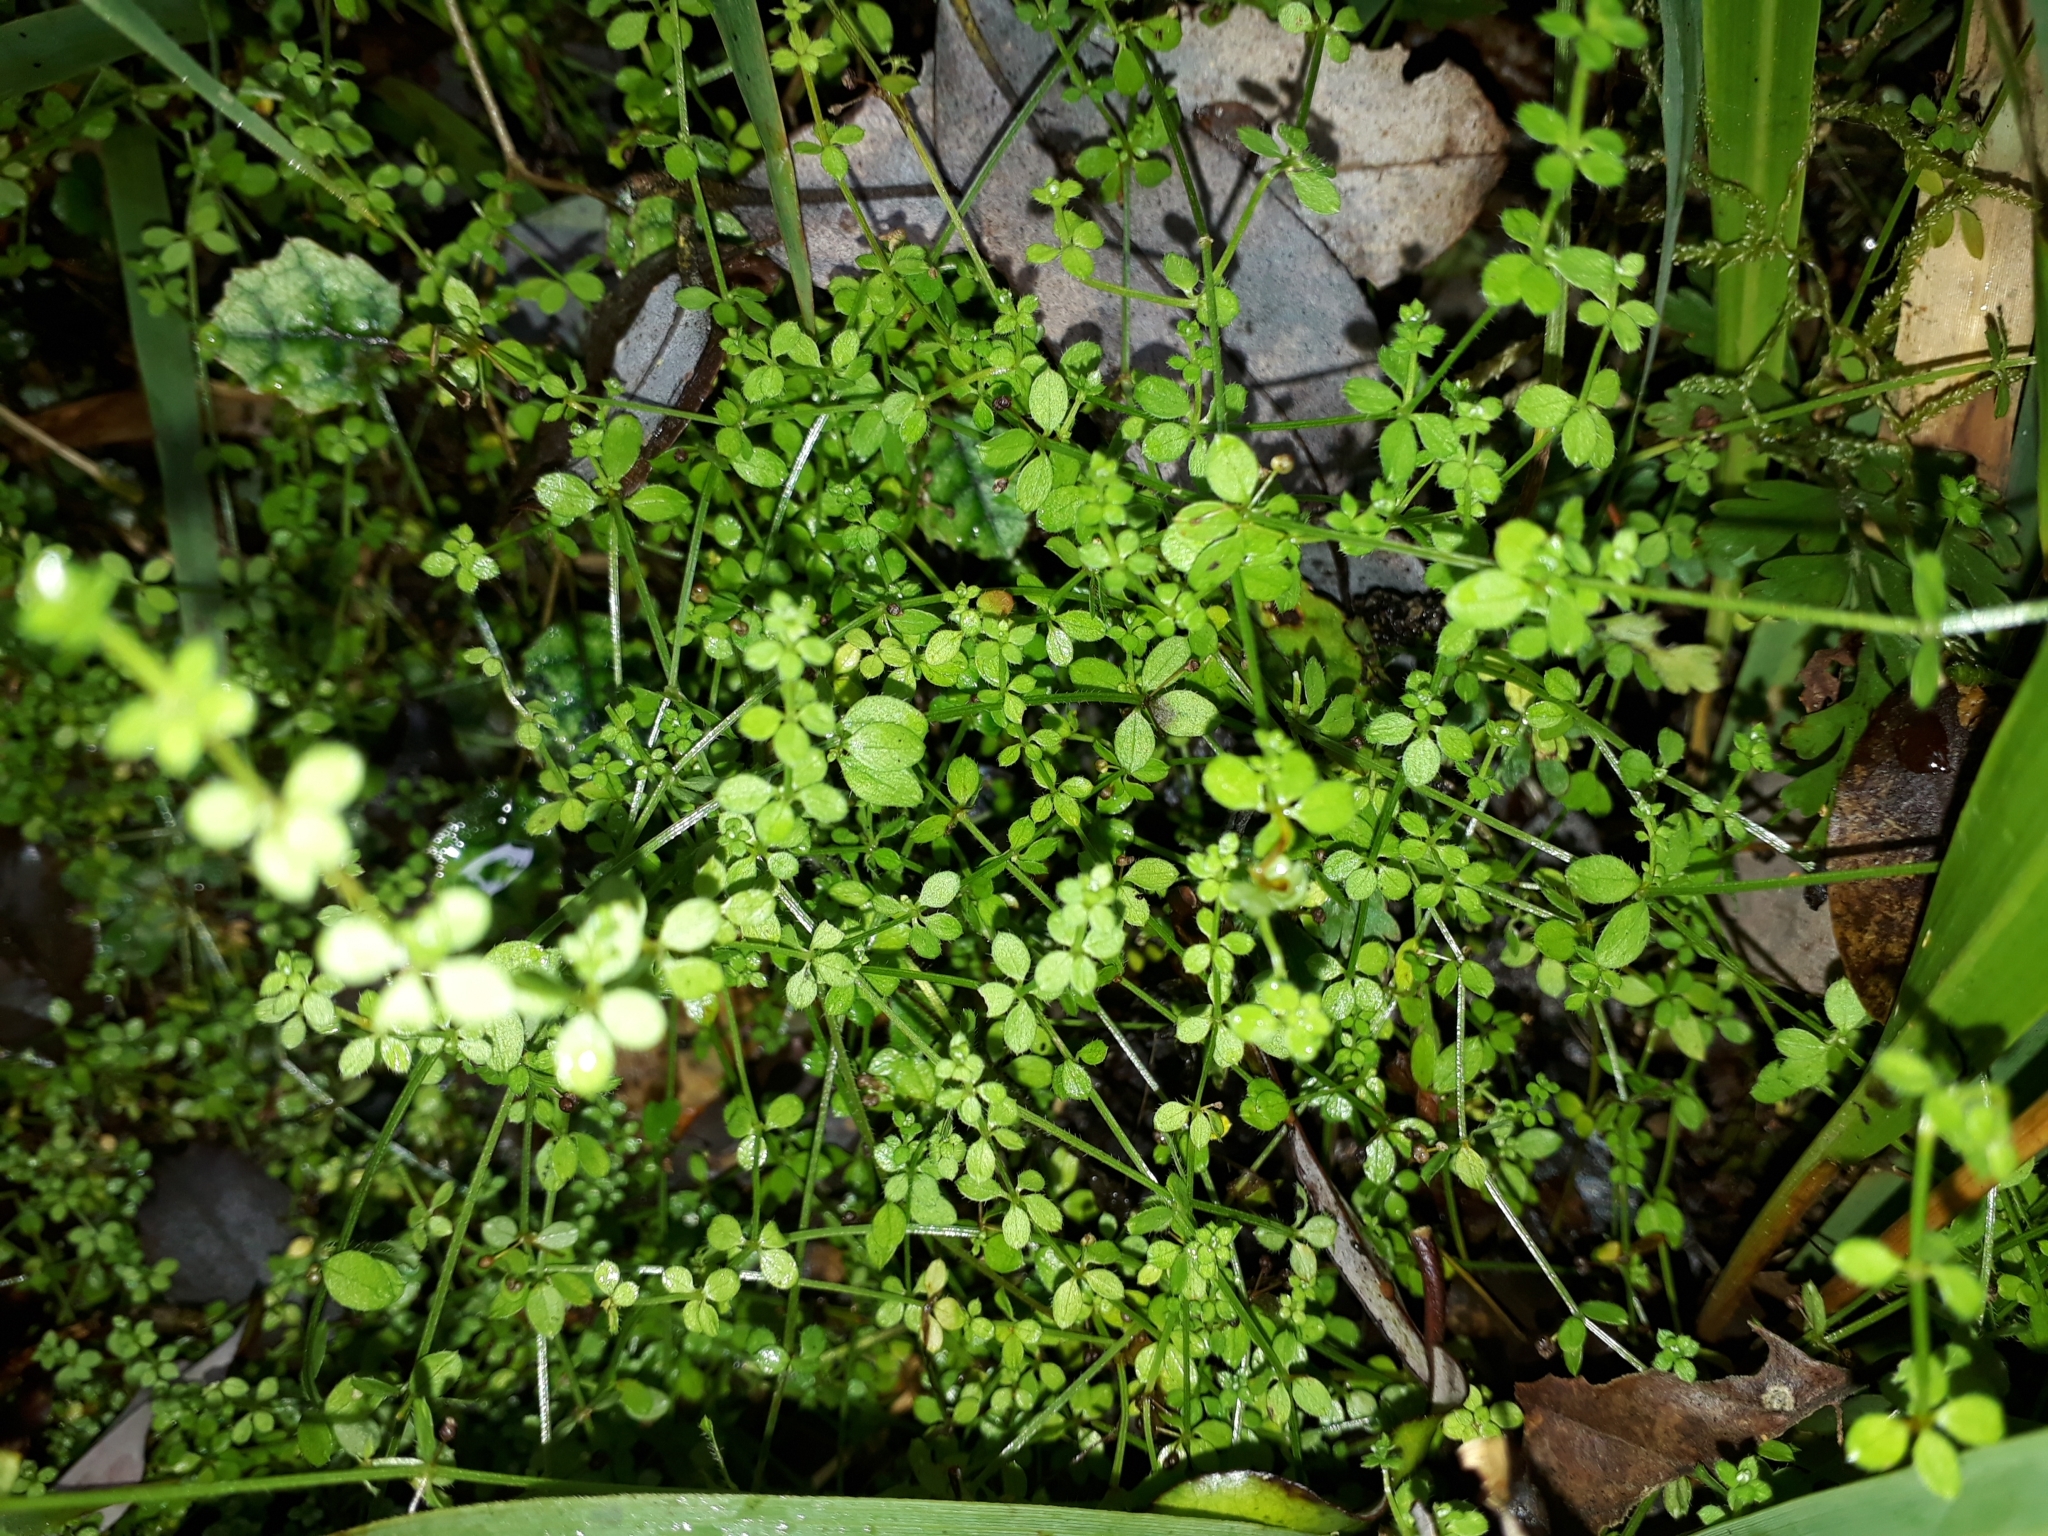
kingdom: Plantae
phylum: Tracheophyta
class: Magnoliopsida
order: Gentianales
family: Rubiaceae
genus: Galium
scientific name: Galium propinquum
